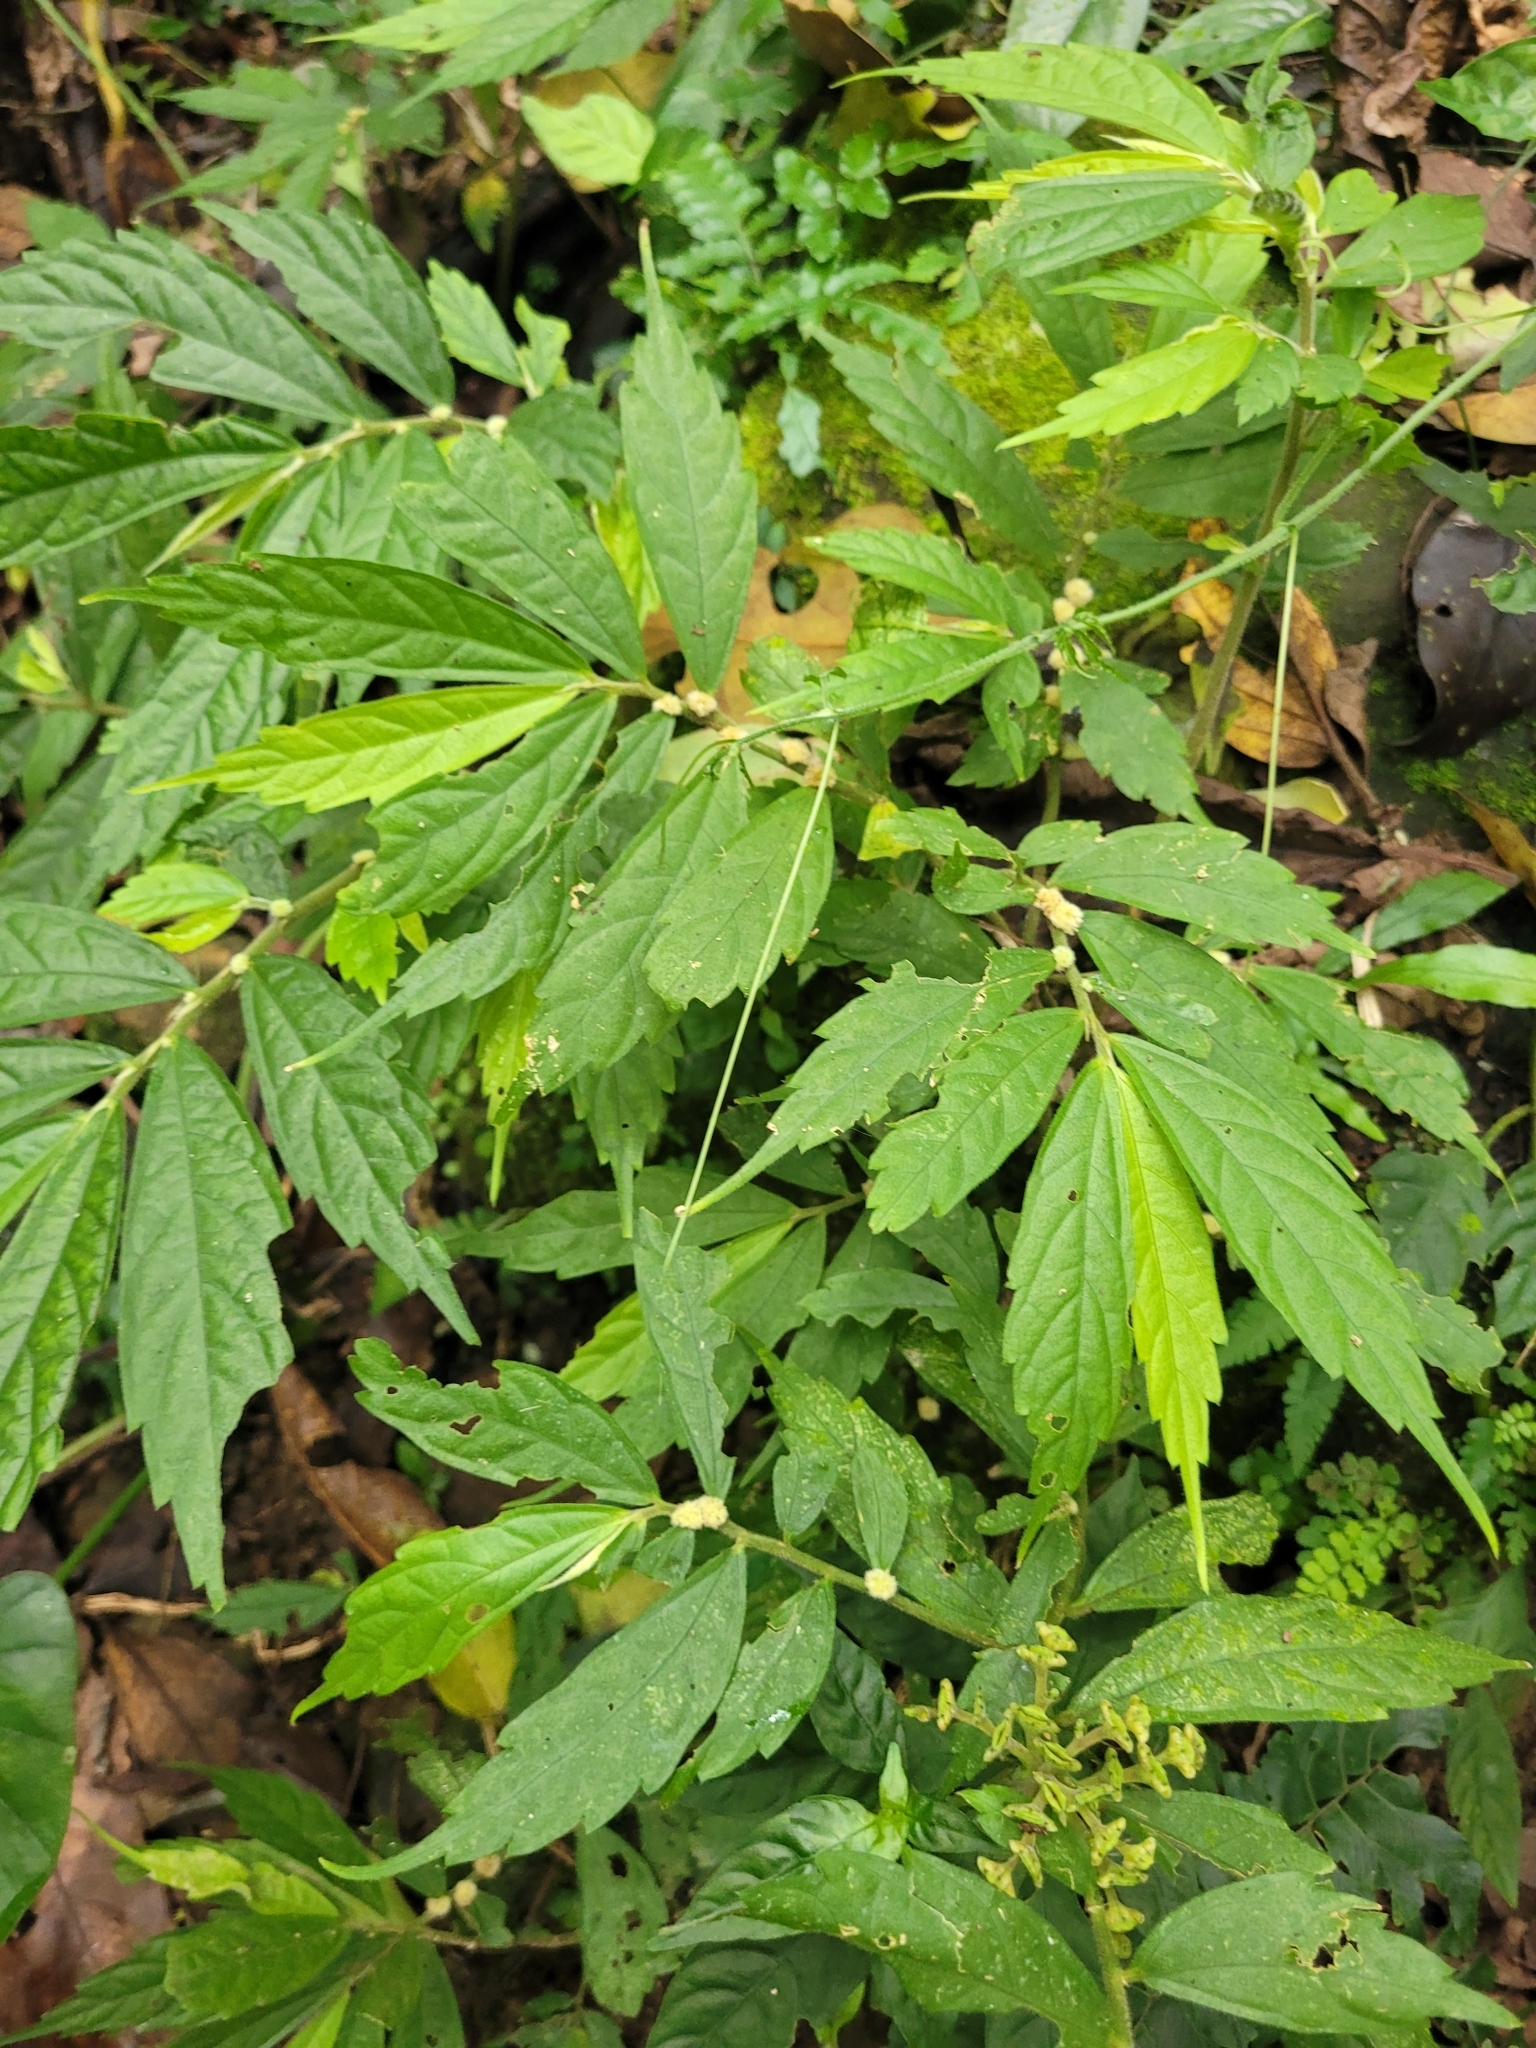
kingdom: Plantae
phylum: Tracheophyta
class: Magnoliopsida
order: Rosales
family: Urticaceae
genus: Elatostema
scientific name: Elatostema lineolatum
